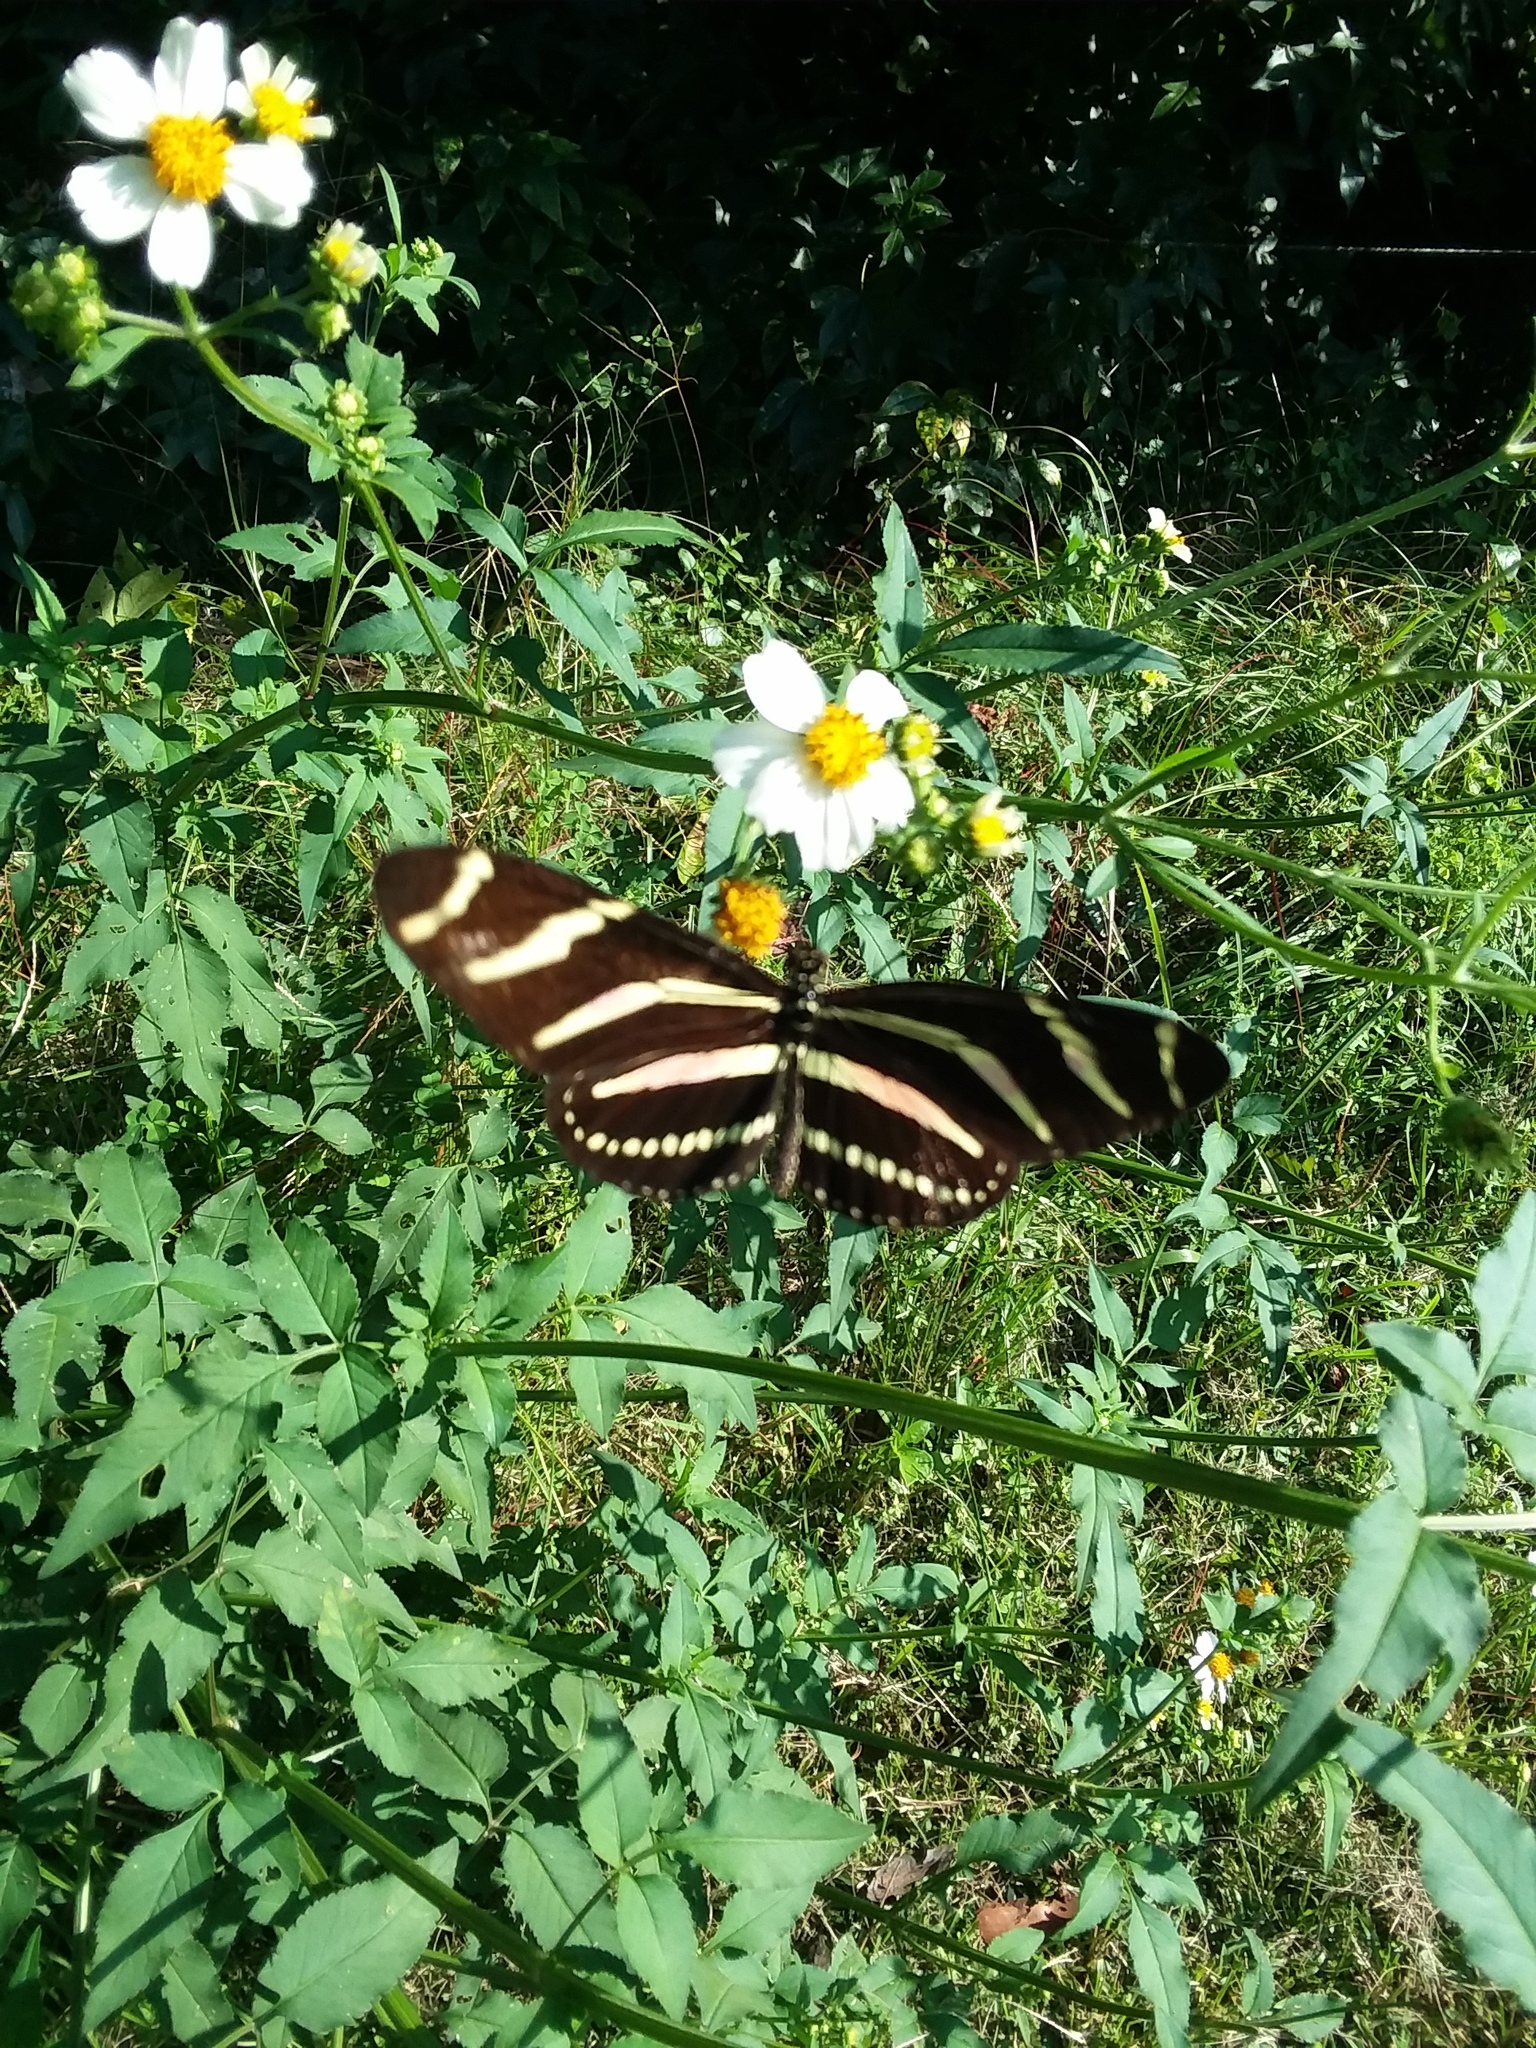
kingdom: Animalia
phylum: Arthropoda
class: Insecta
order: Lepidoptera
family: Nymphalidae
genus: Heliconius
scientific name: Heliconius charithonia
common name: Zebra long wing
